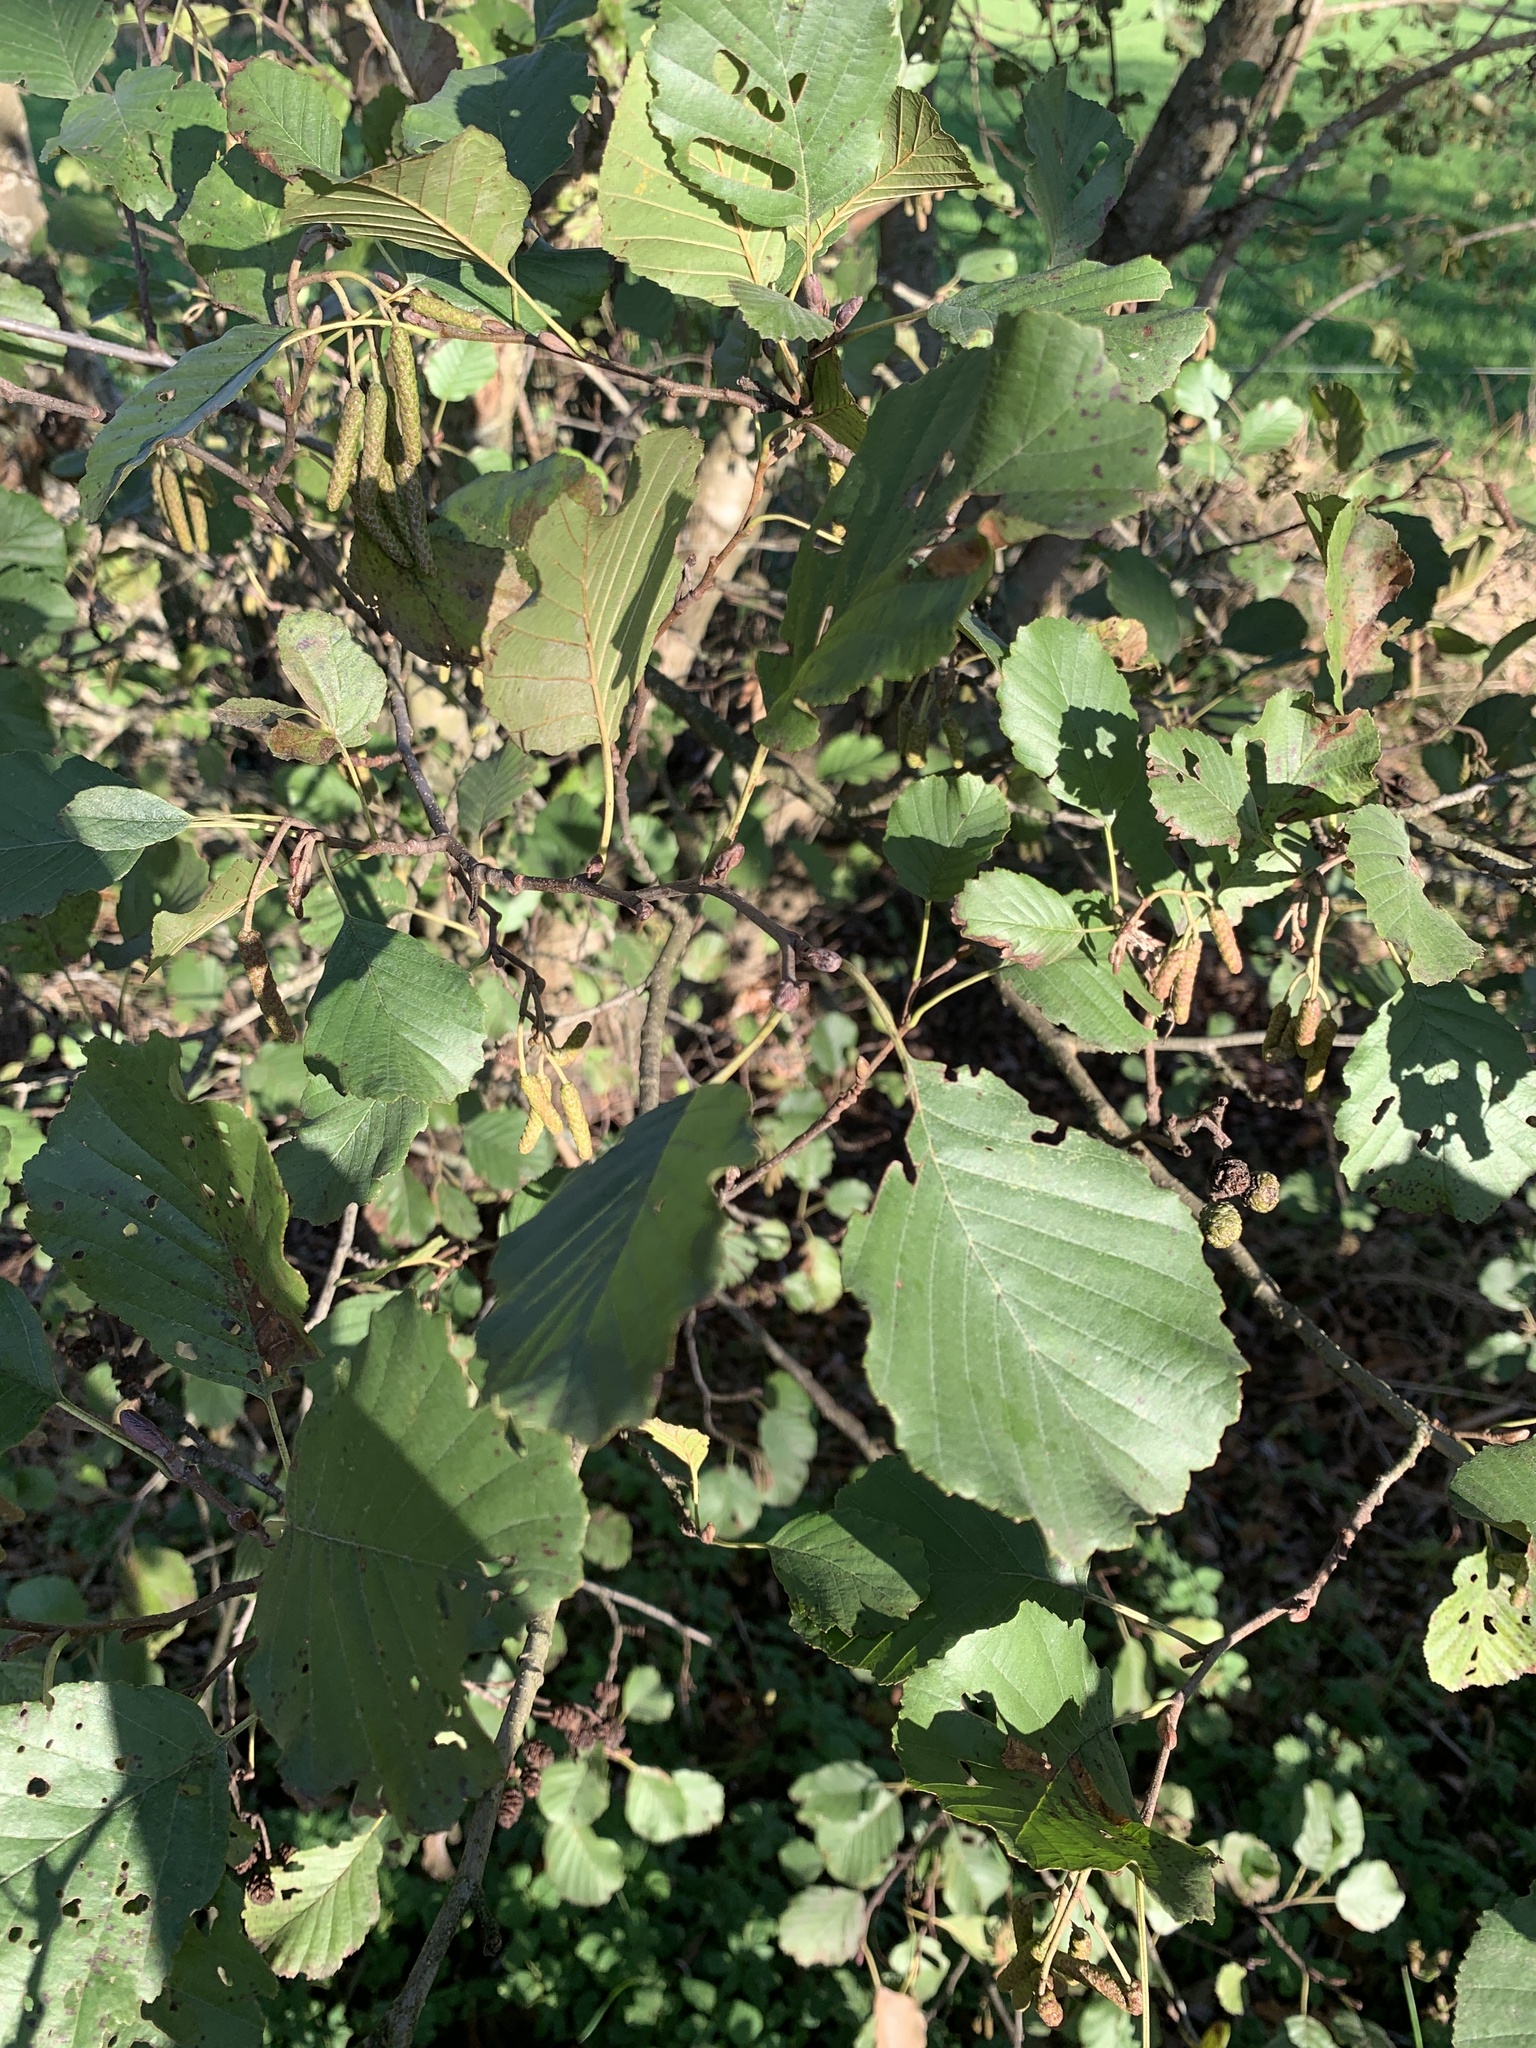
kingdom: Plantae
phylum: Tracheophyta
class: Magnoliopsida
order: Fagales
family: Betulaceae
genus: Alnus
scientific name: Alnus glutinosa
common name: Black alder
